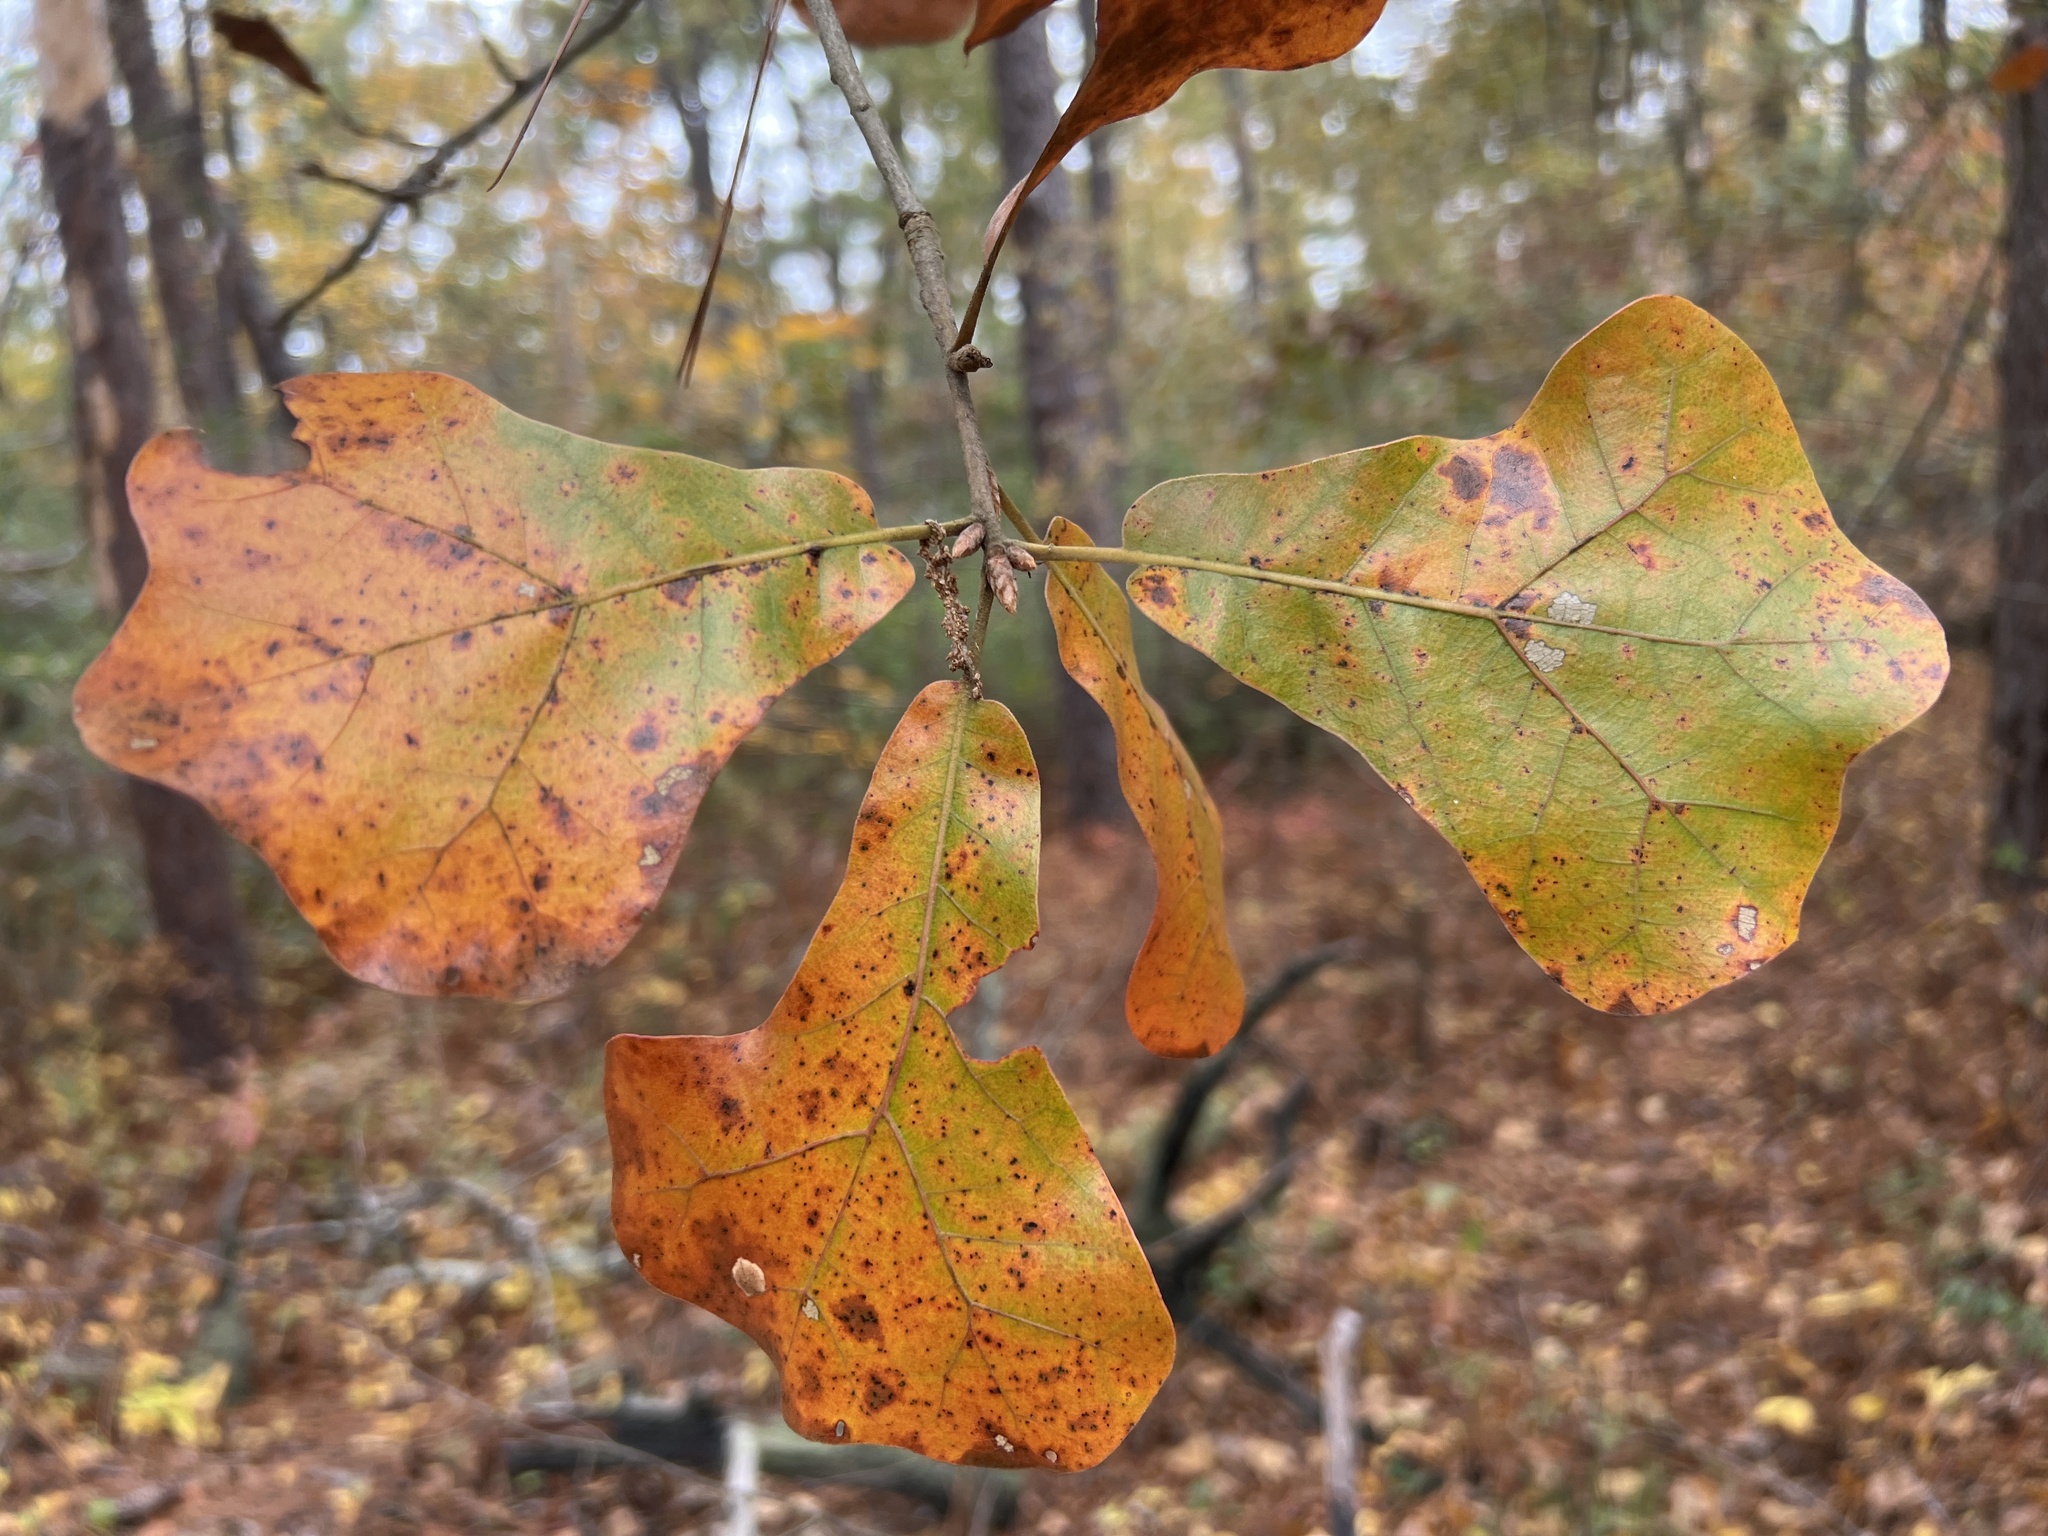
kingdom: Plantae
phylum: Tracheophyta
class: Magnoliopsida
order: Fagales
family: Fagaceae
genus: Quercus
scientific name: Quercus marilandica
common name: Blackjack oak
